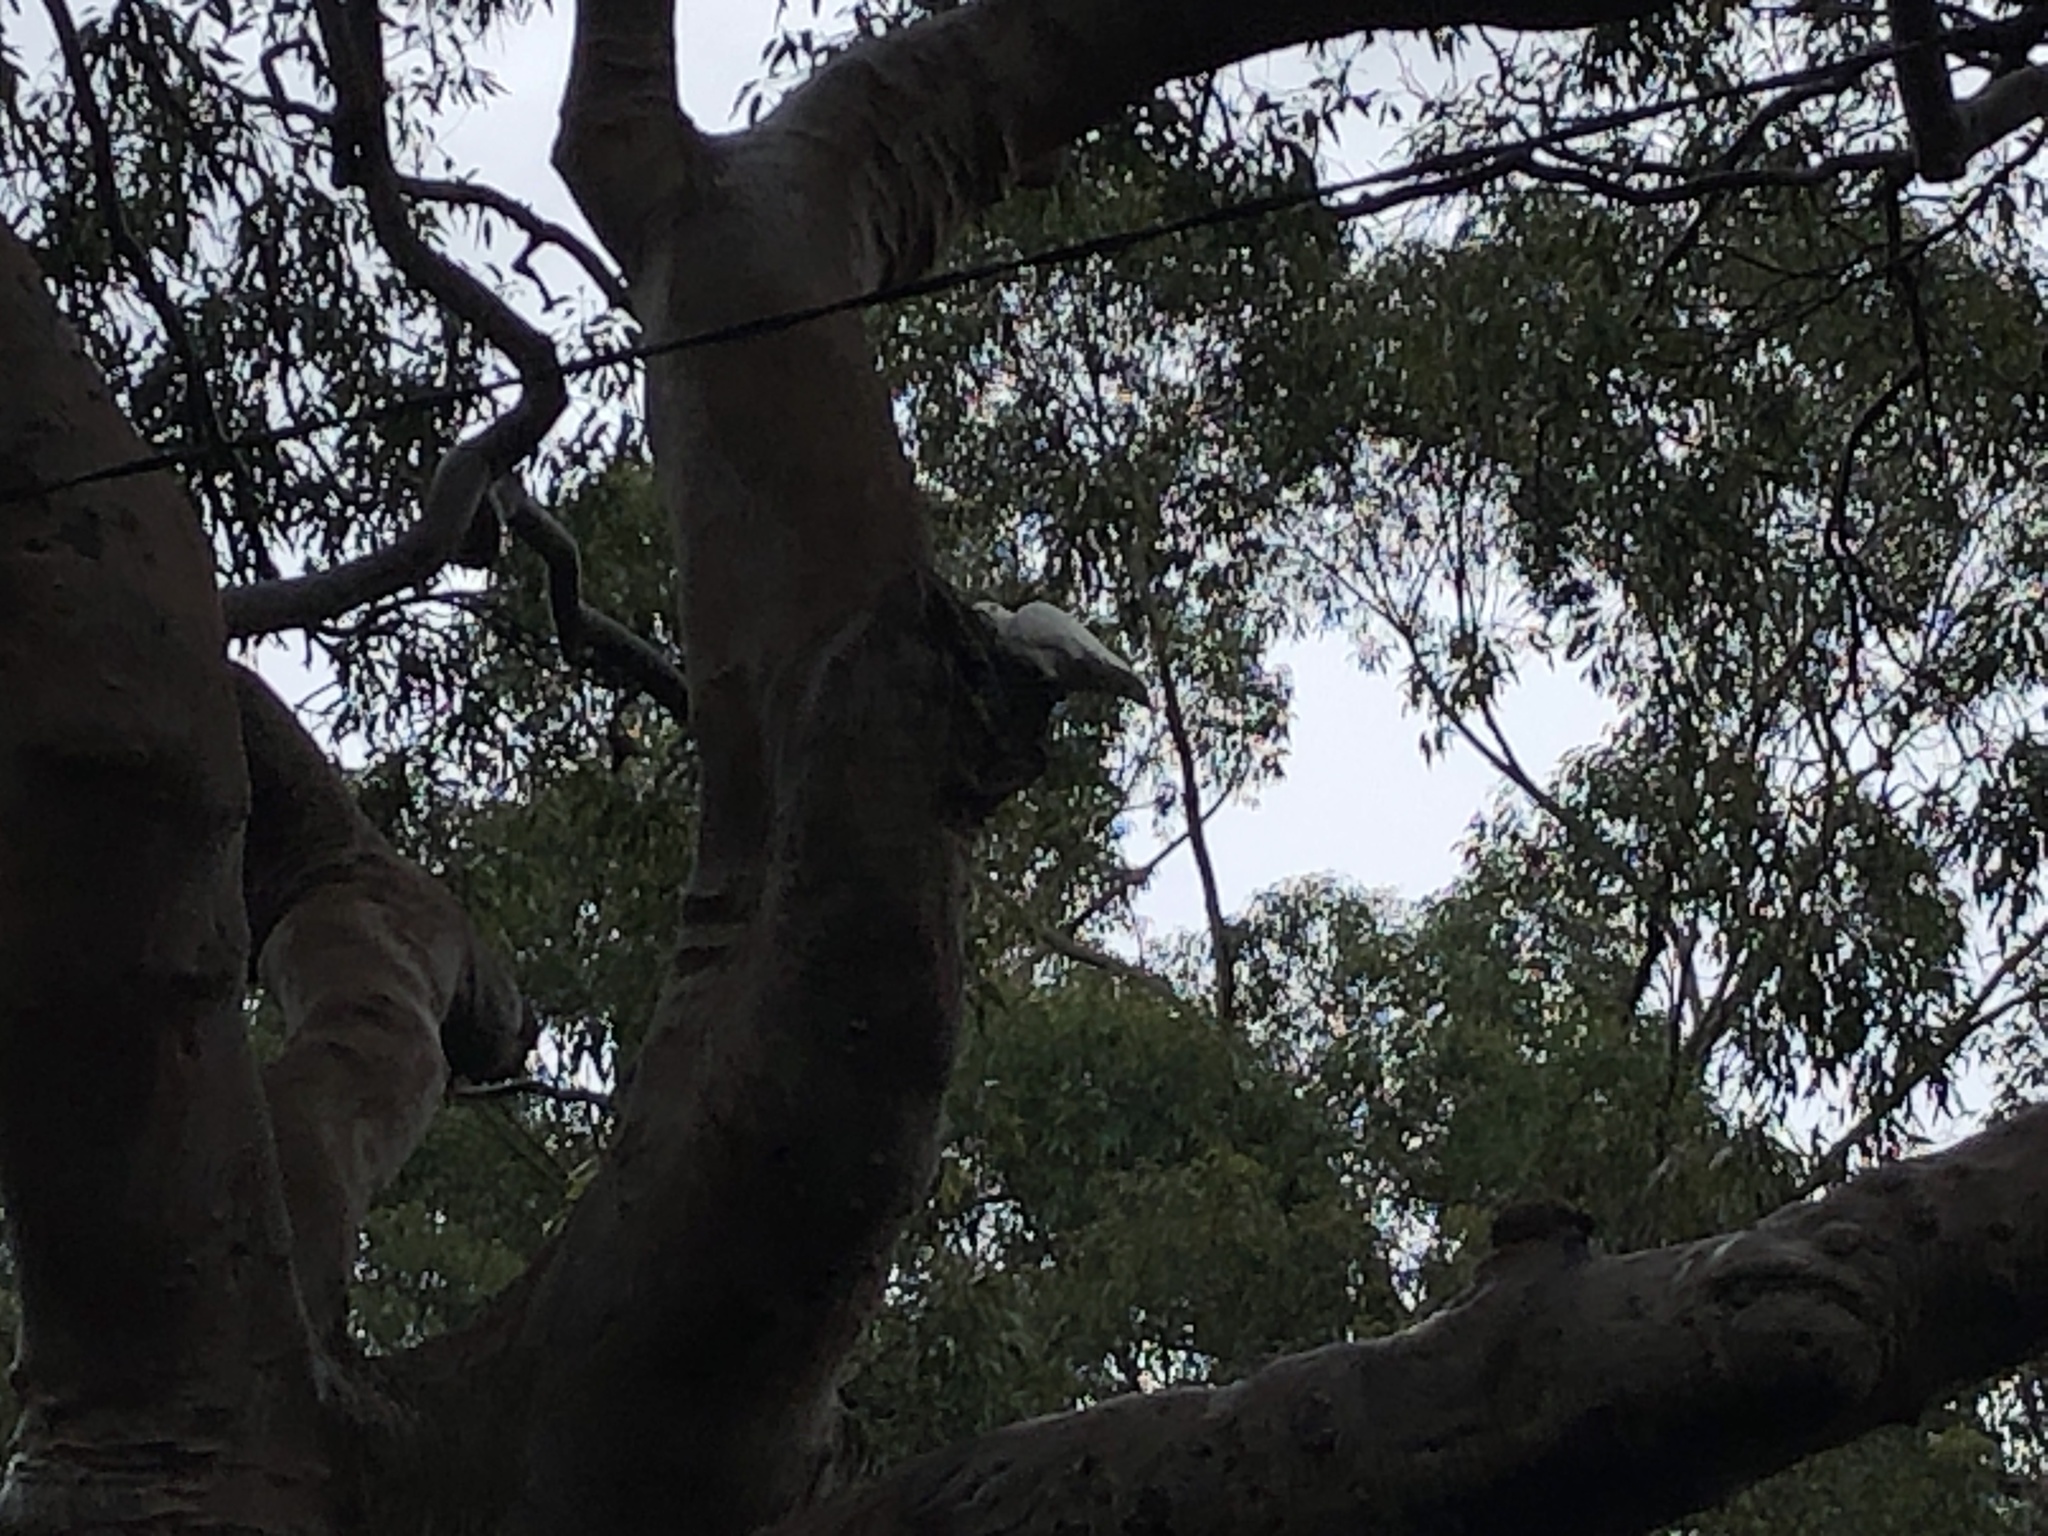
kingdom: Animalia
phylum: Chordata
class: Aves
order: Psittaciformes
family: Psittacidae
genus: Cacatua
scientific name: Cacatua galerita
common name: Sulphur-crested cockatoo
